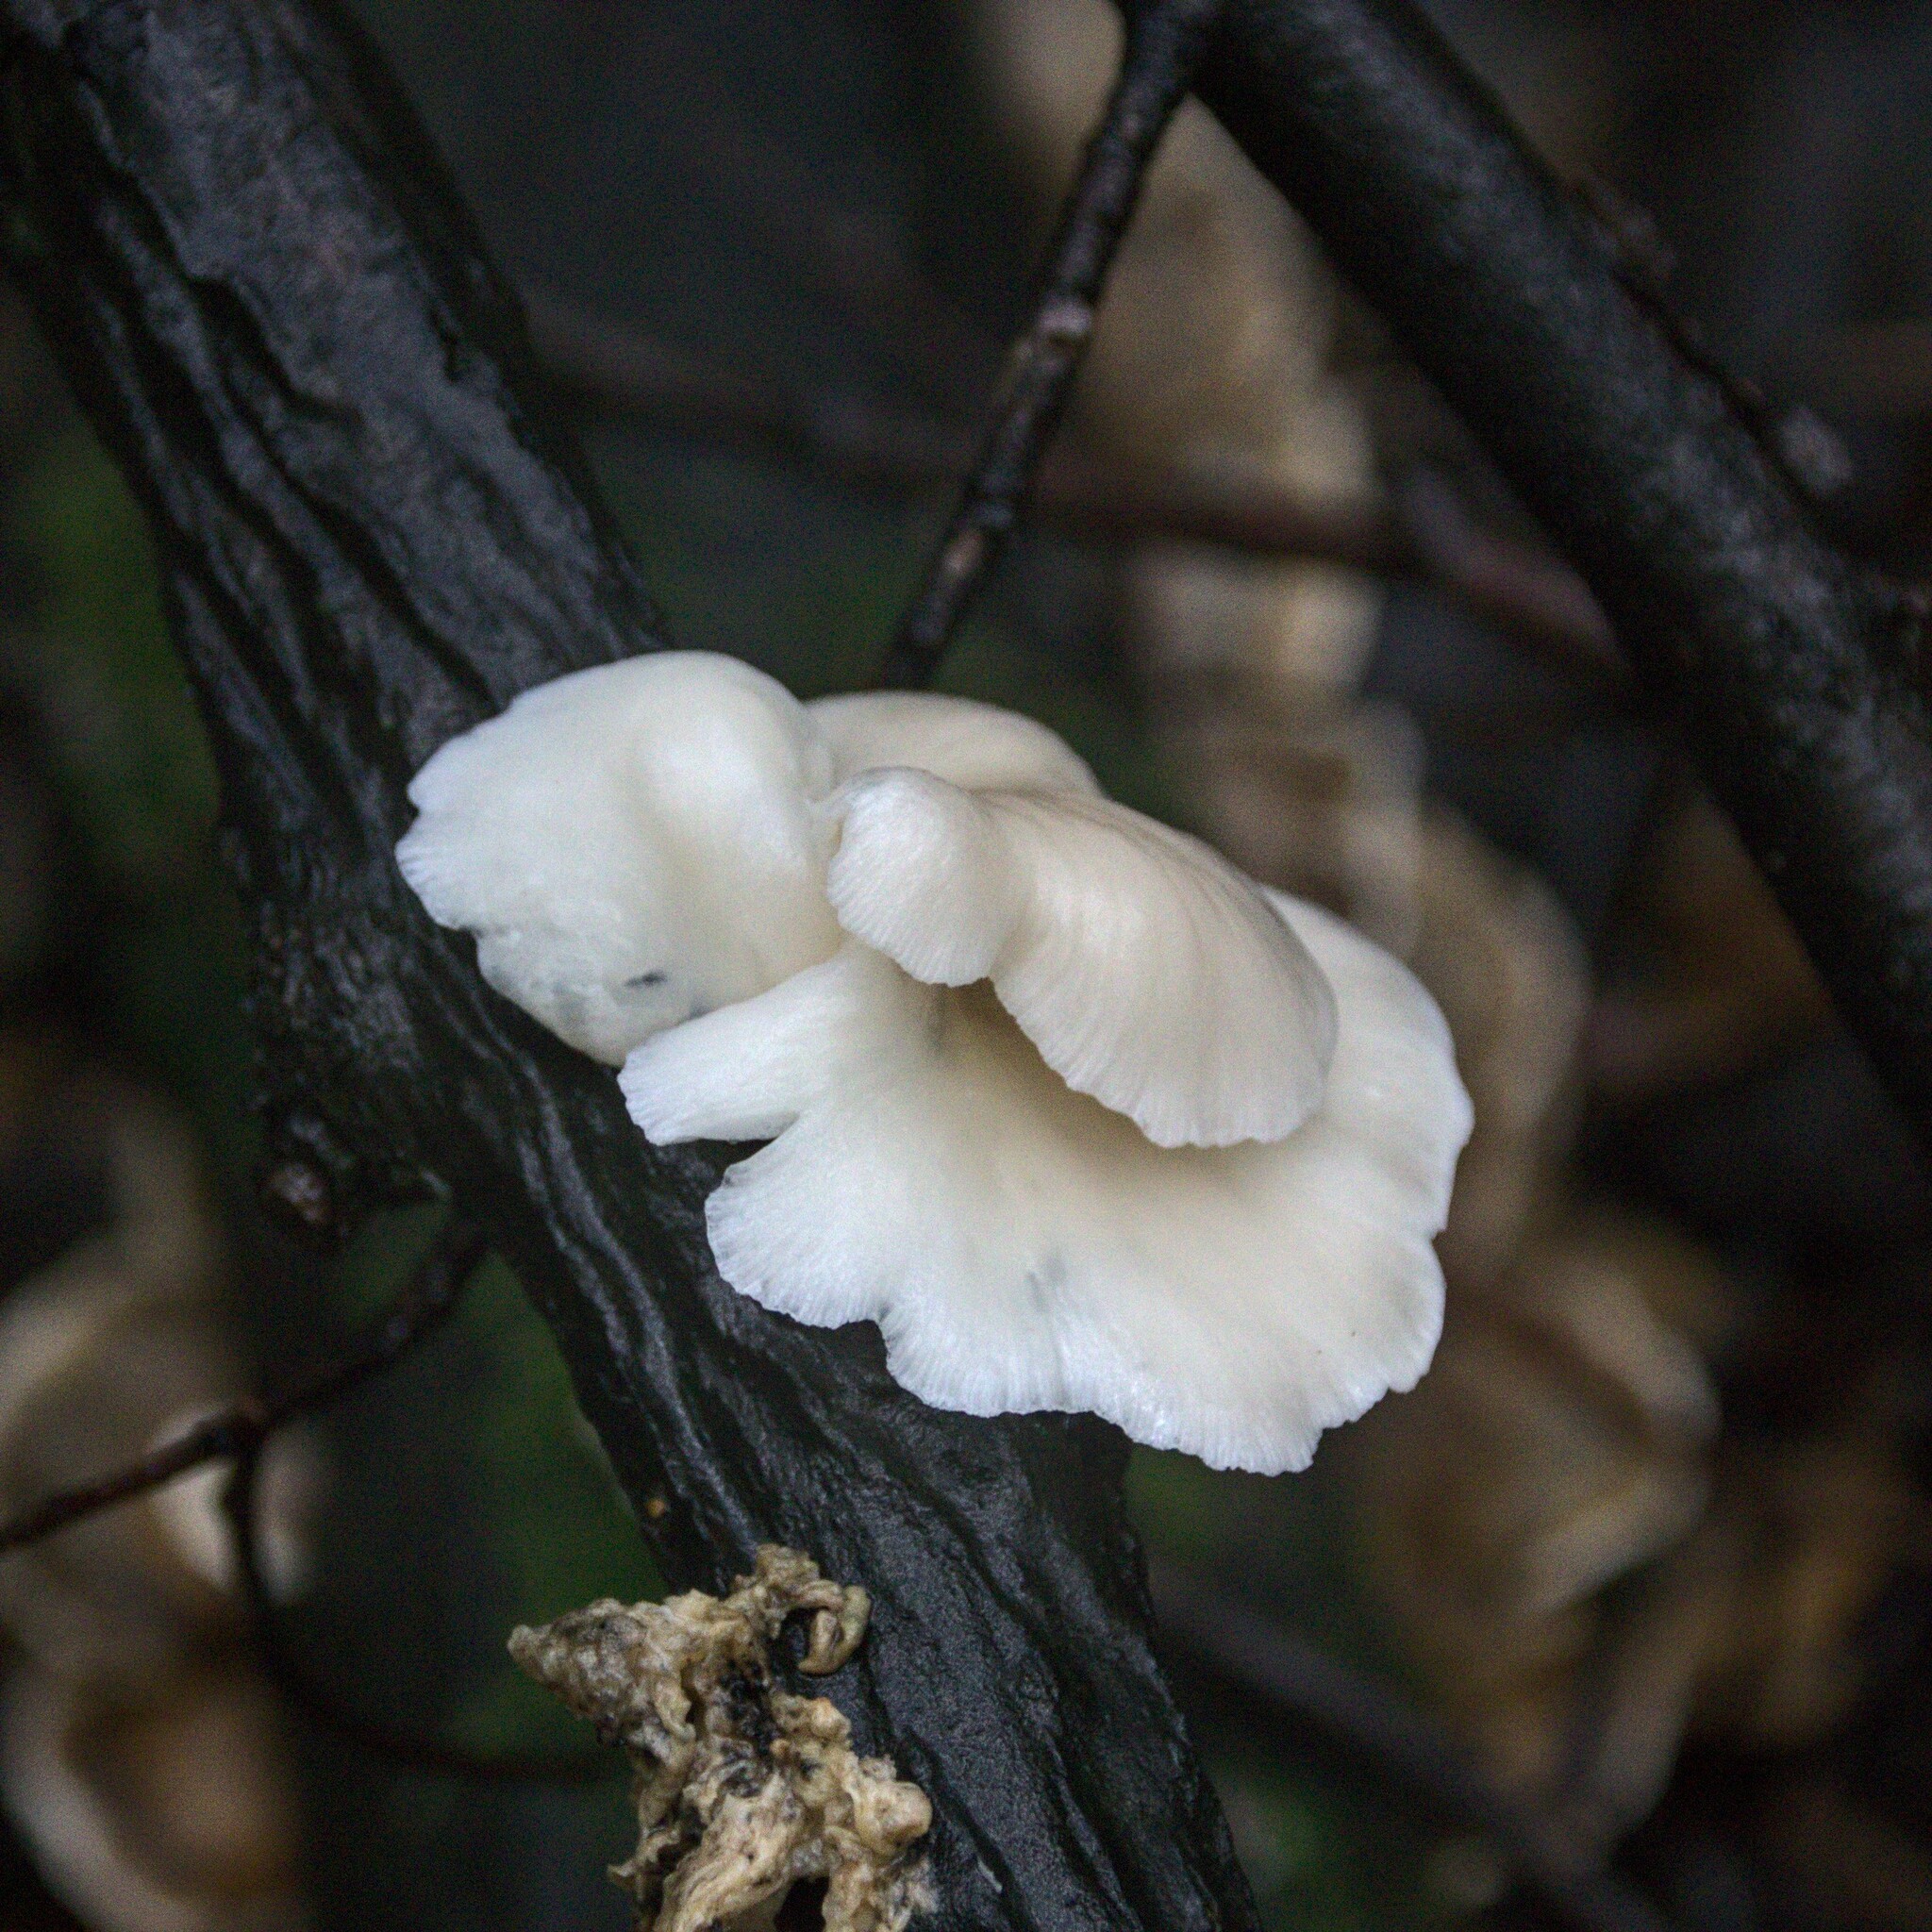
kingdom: Fungi
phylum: Basidiomycota
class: Agaricomycetes
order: Agaricales
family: Marasmiaceae
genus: Pleurocybella
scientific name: Pleurocybella porrigens
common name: Angel's wings
